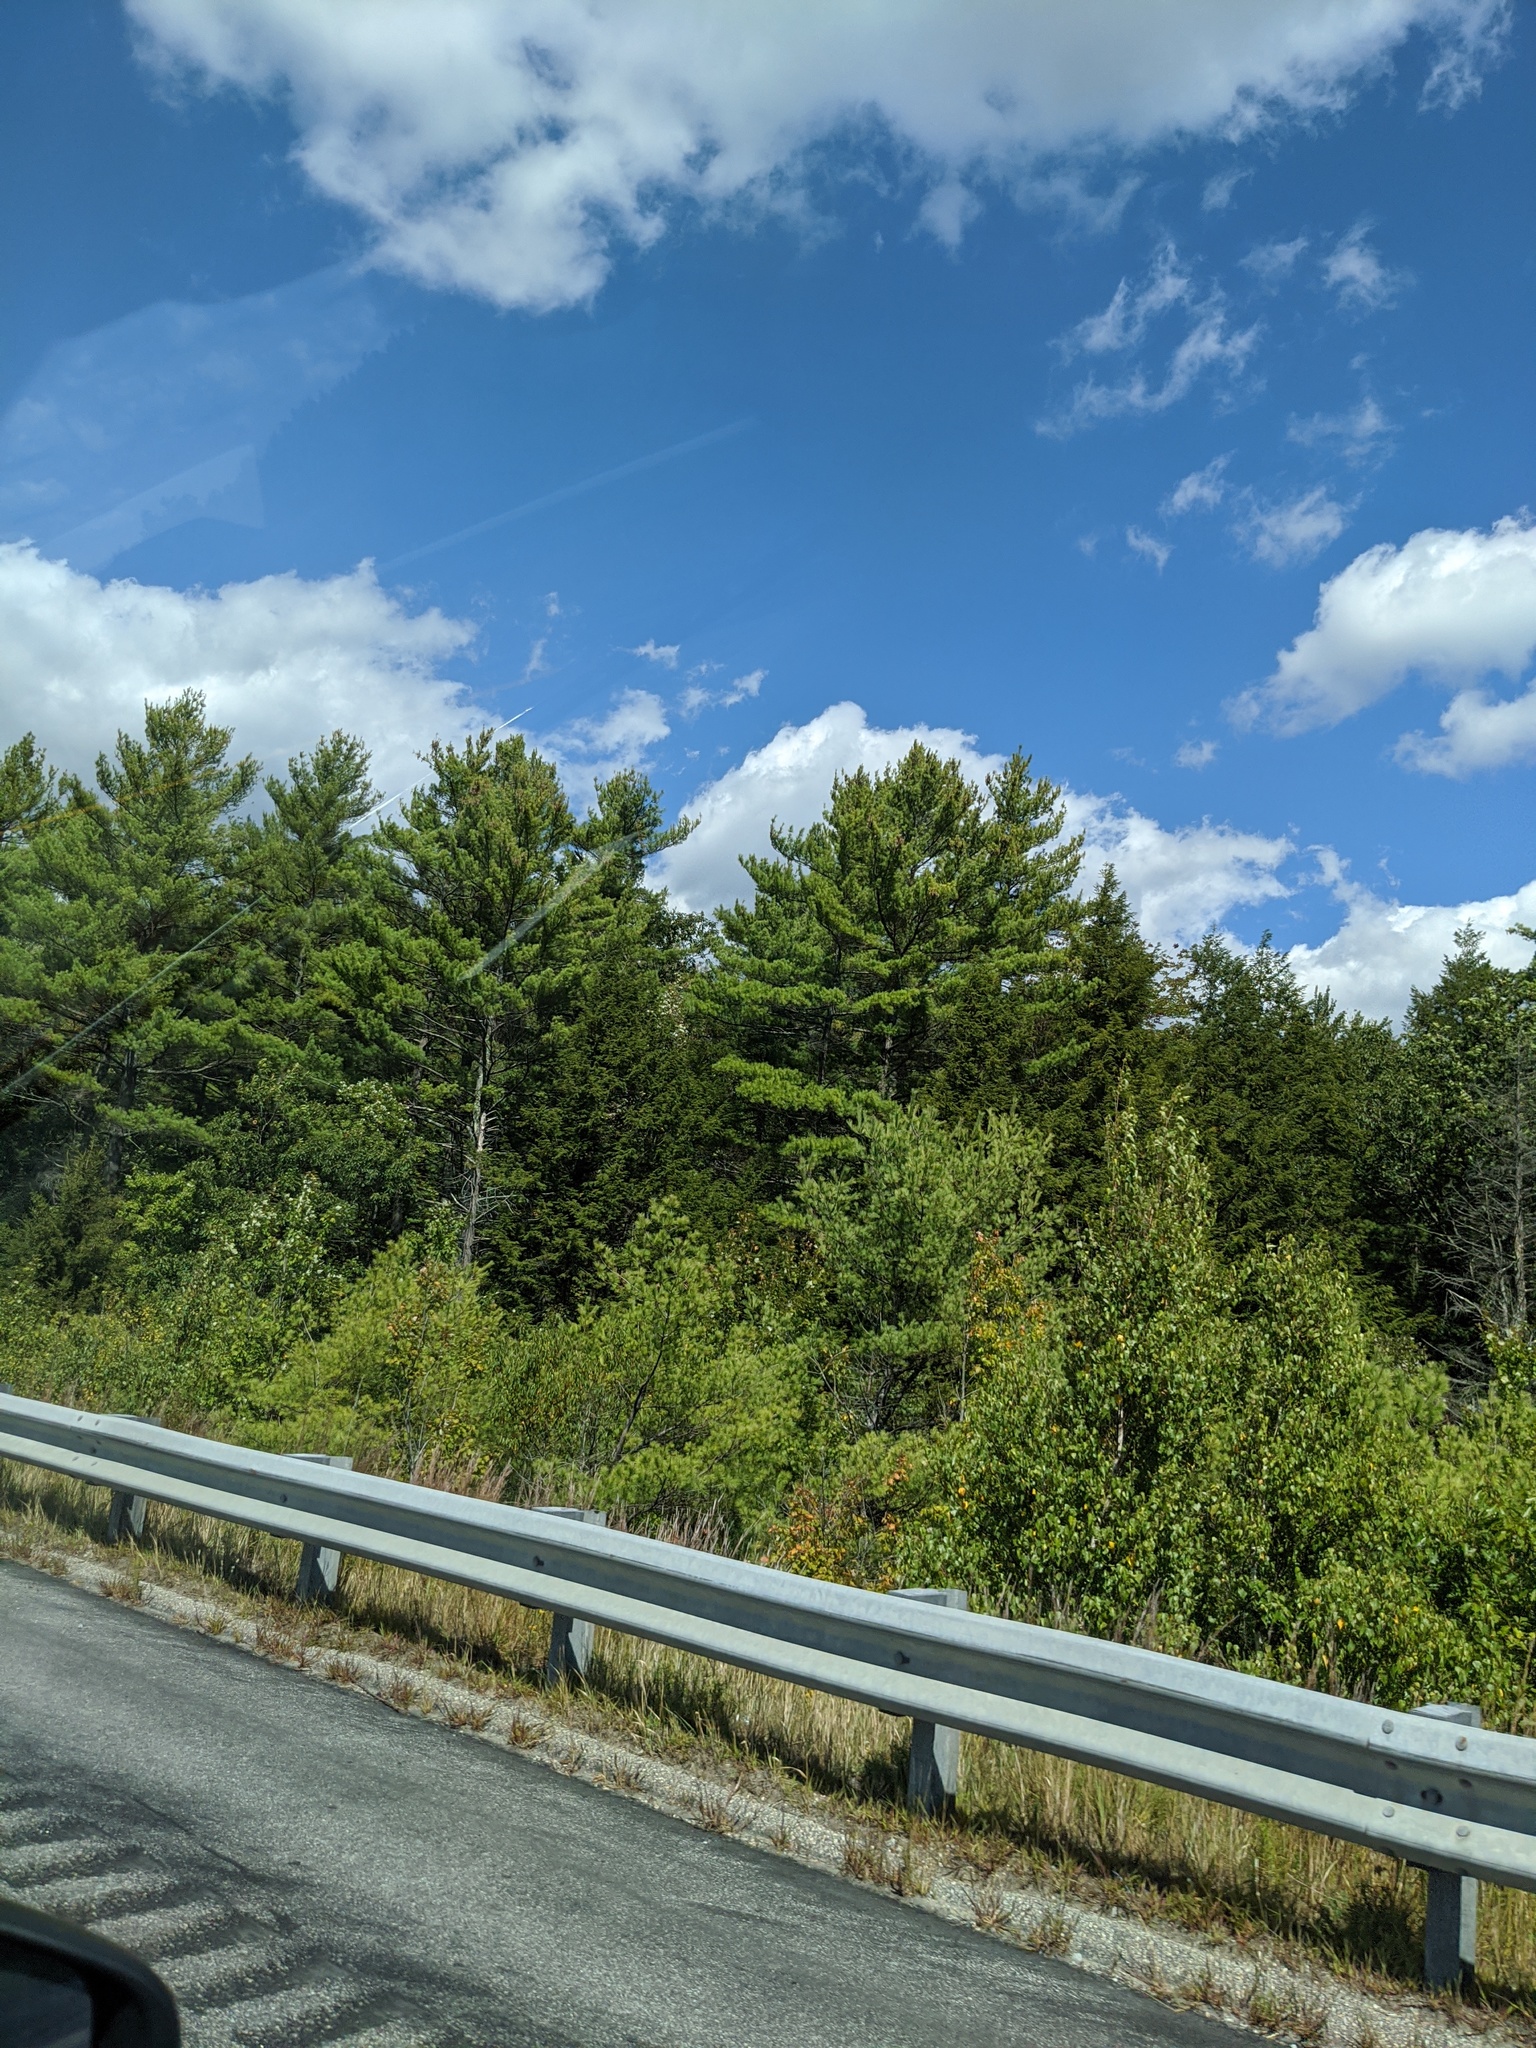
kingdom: Plantae
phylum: Tracheophyta
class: Pinopsida
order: Pinales
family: Pinaceae
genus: Pinus
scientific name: Pinus strobus
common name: Weymouth pine
